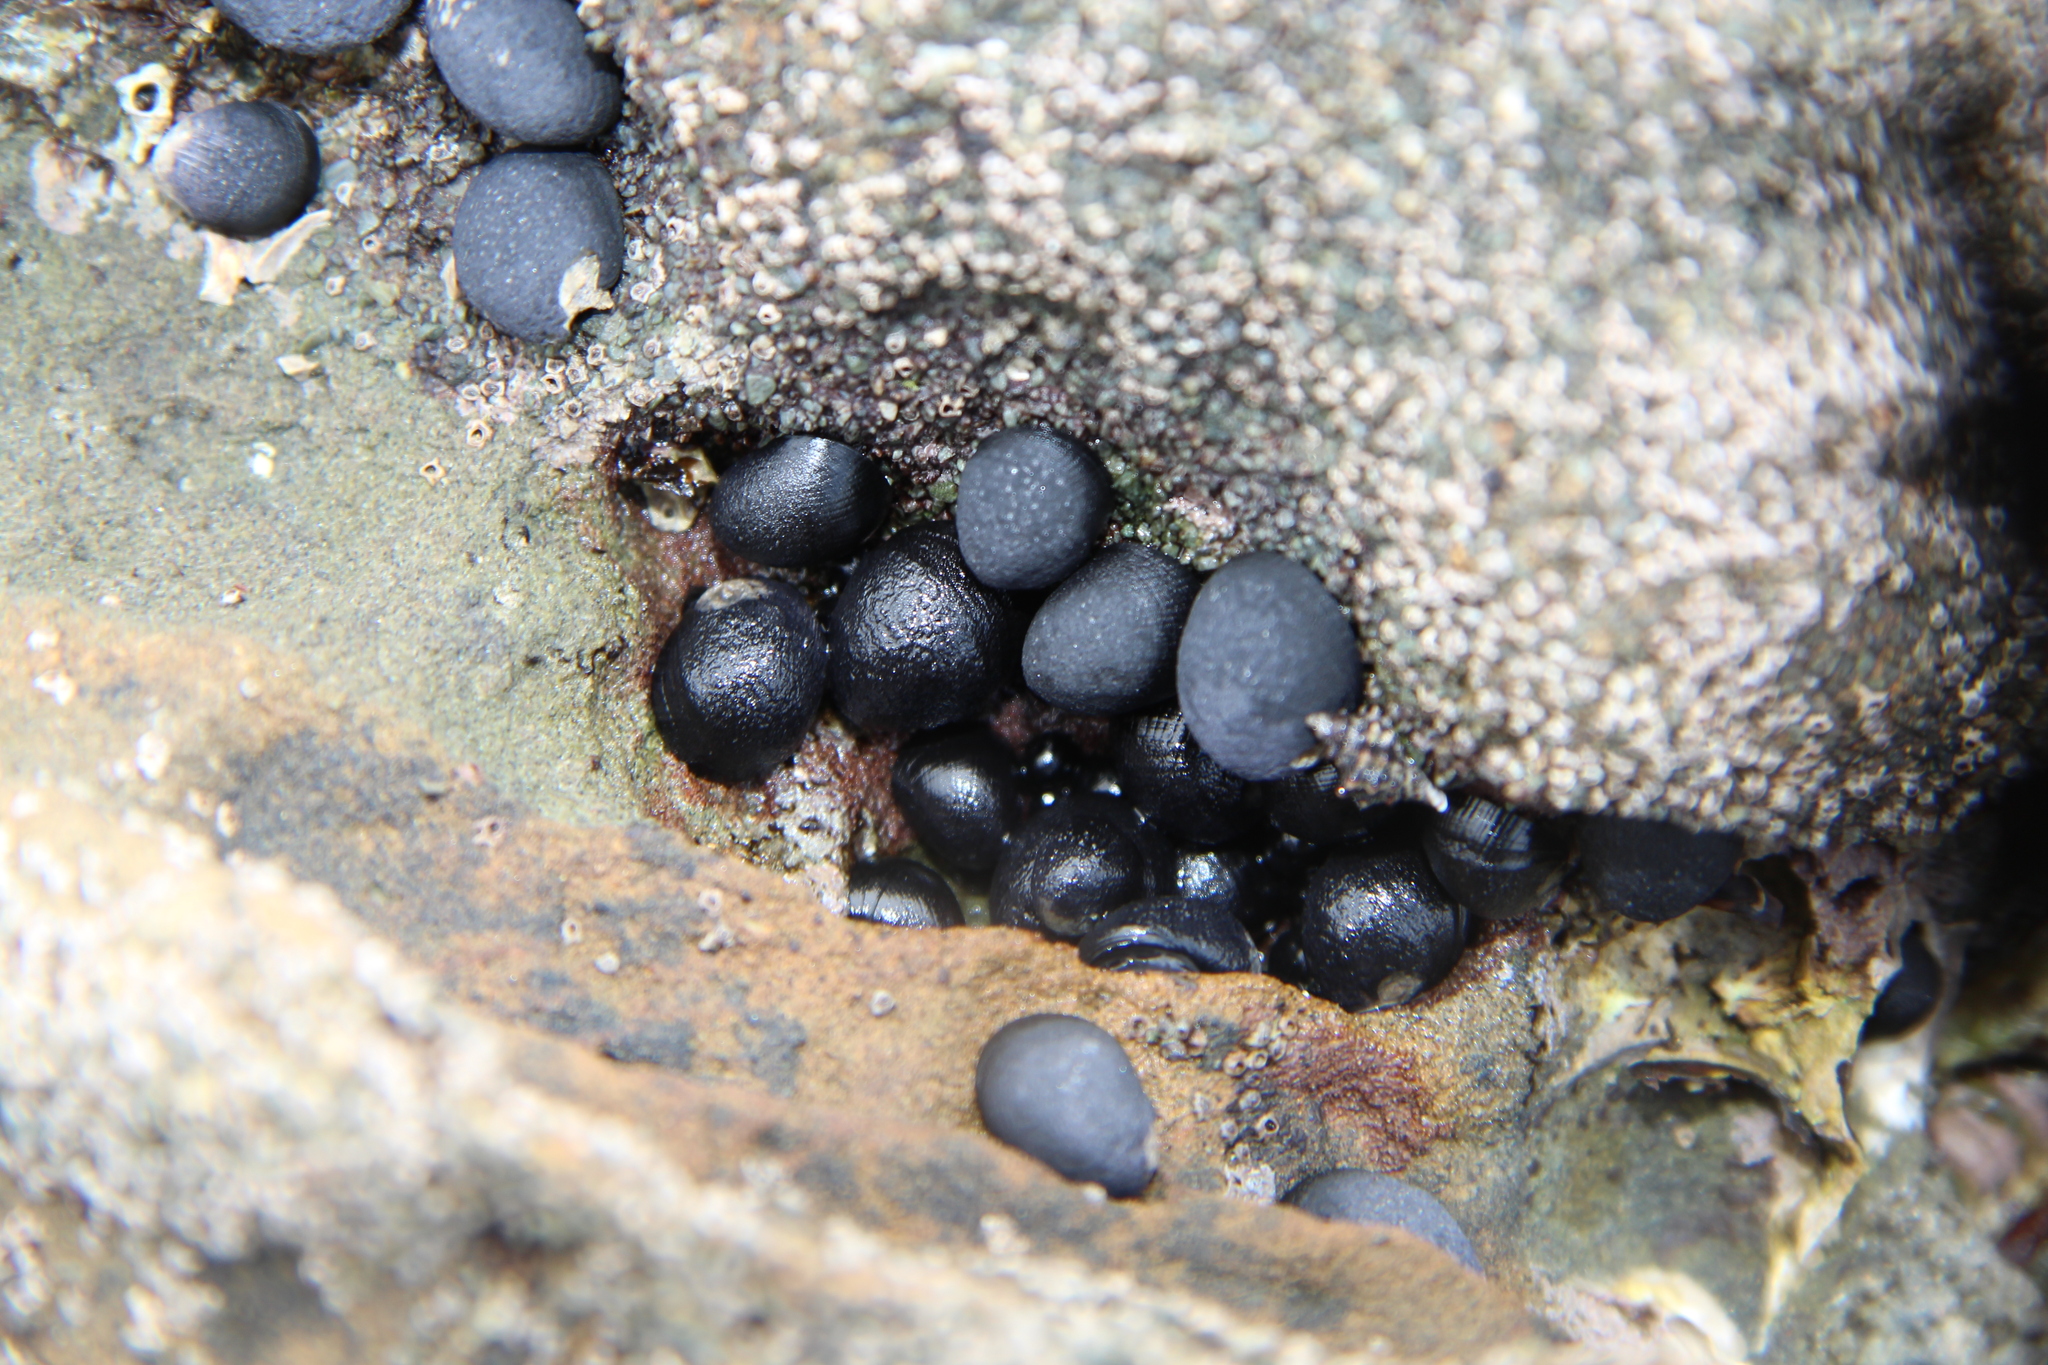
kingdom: Animalia
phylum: Mollusca
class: Gastropoda
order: Cycloneritida
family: Neritidae
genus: Nerita
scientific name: Nerita melanotragus
